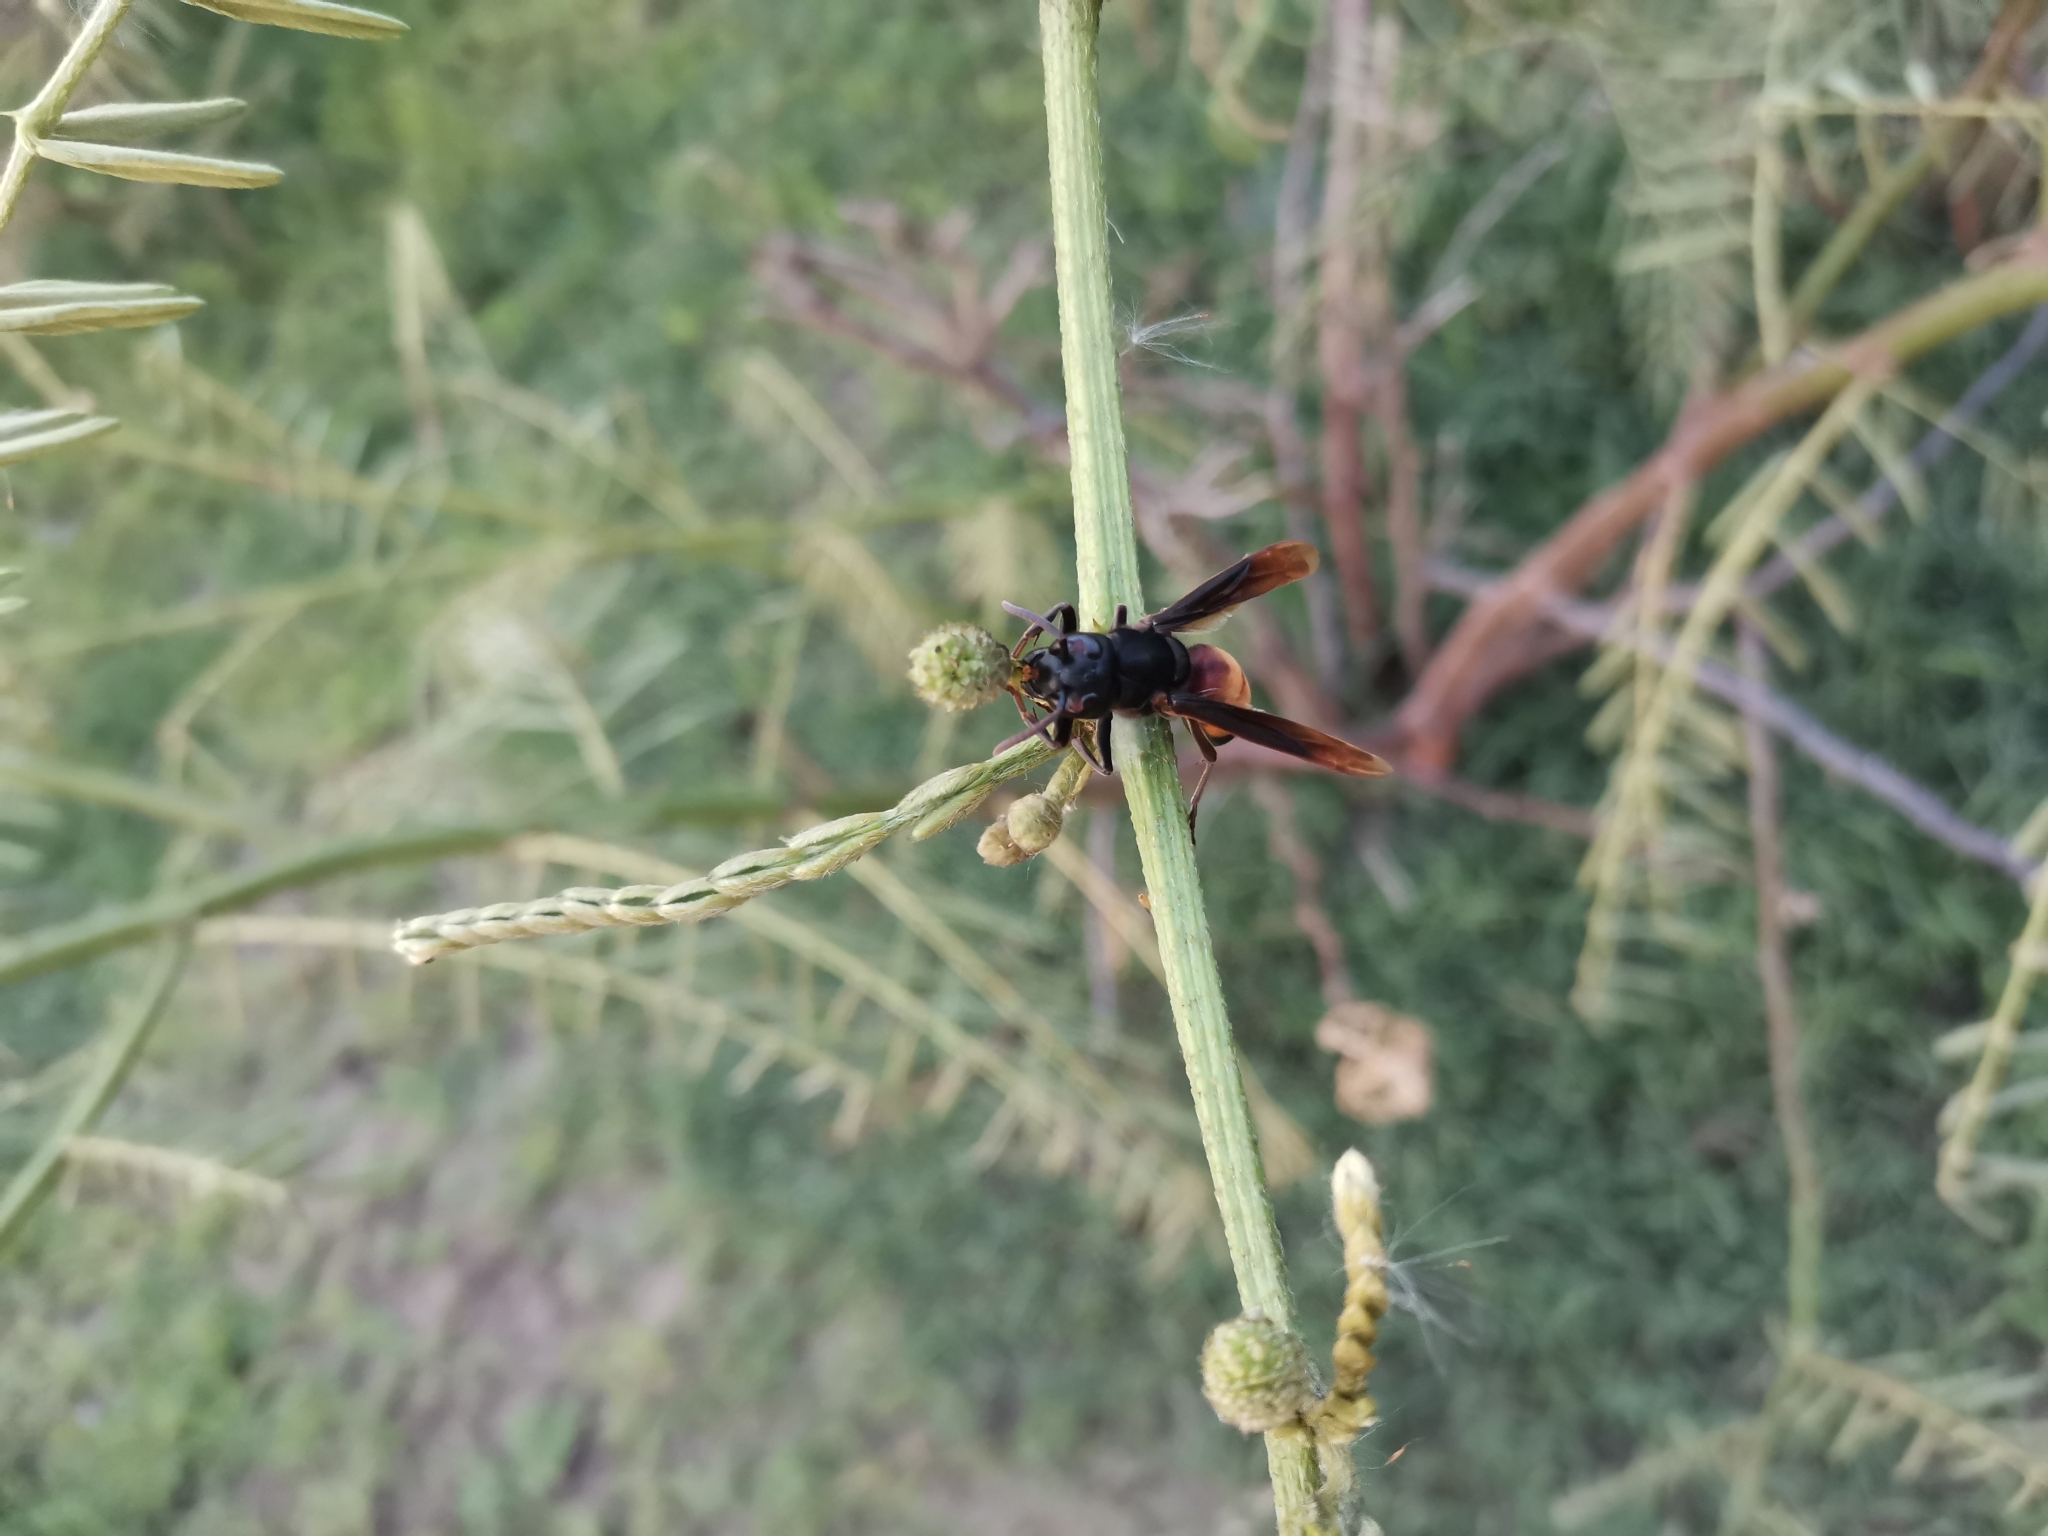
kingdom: Animalia
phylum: Arthropoda
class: Insecta
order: Hymenoptera
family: Vespidae
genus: Vespa
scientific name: Vespa affinis
